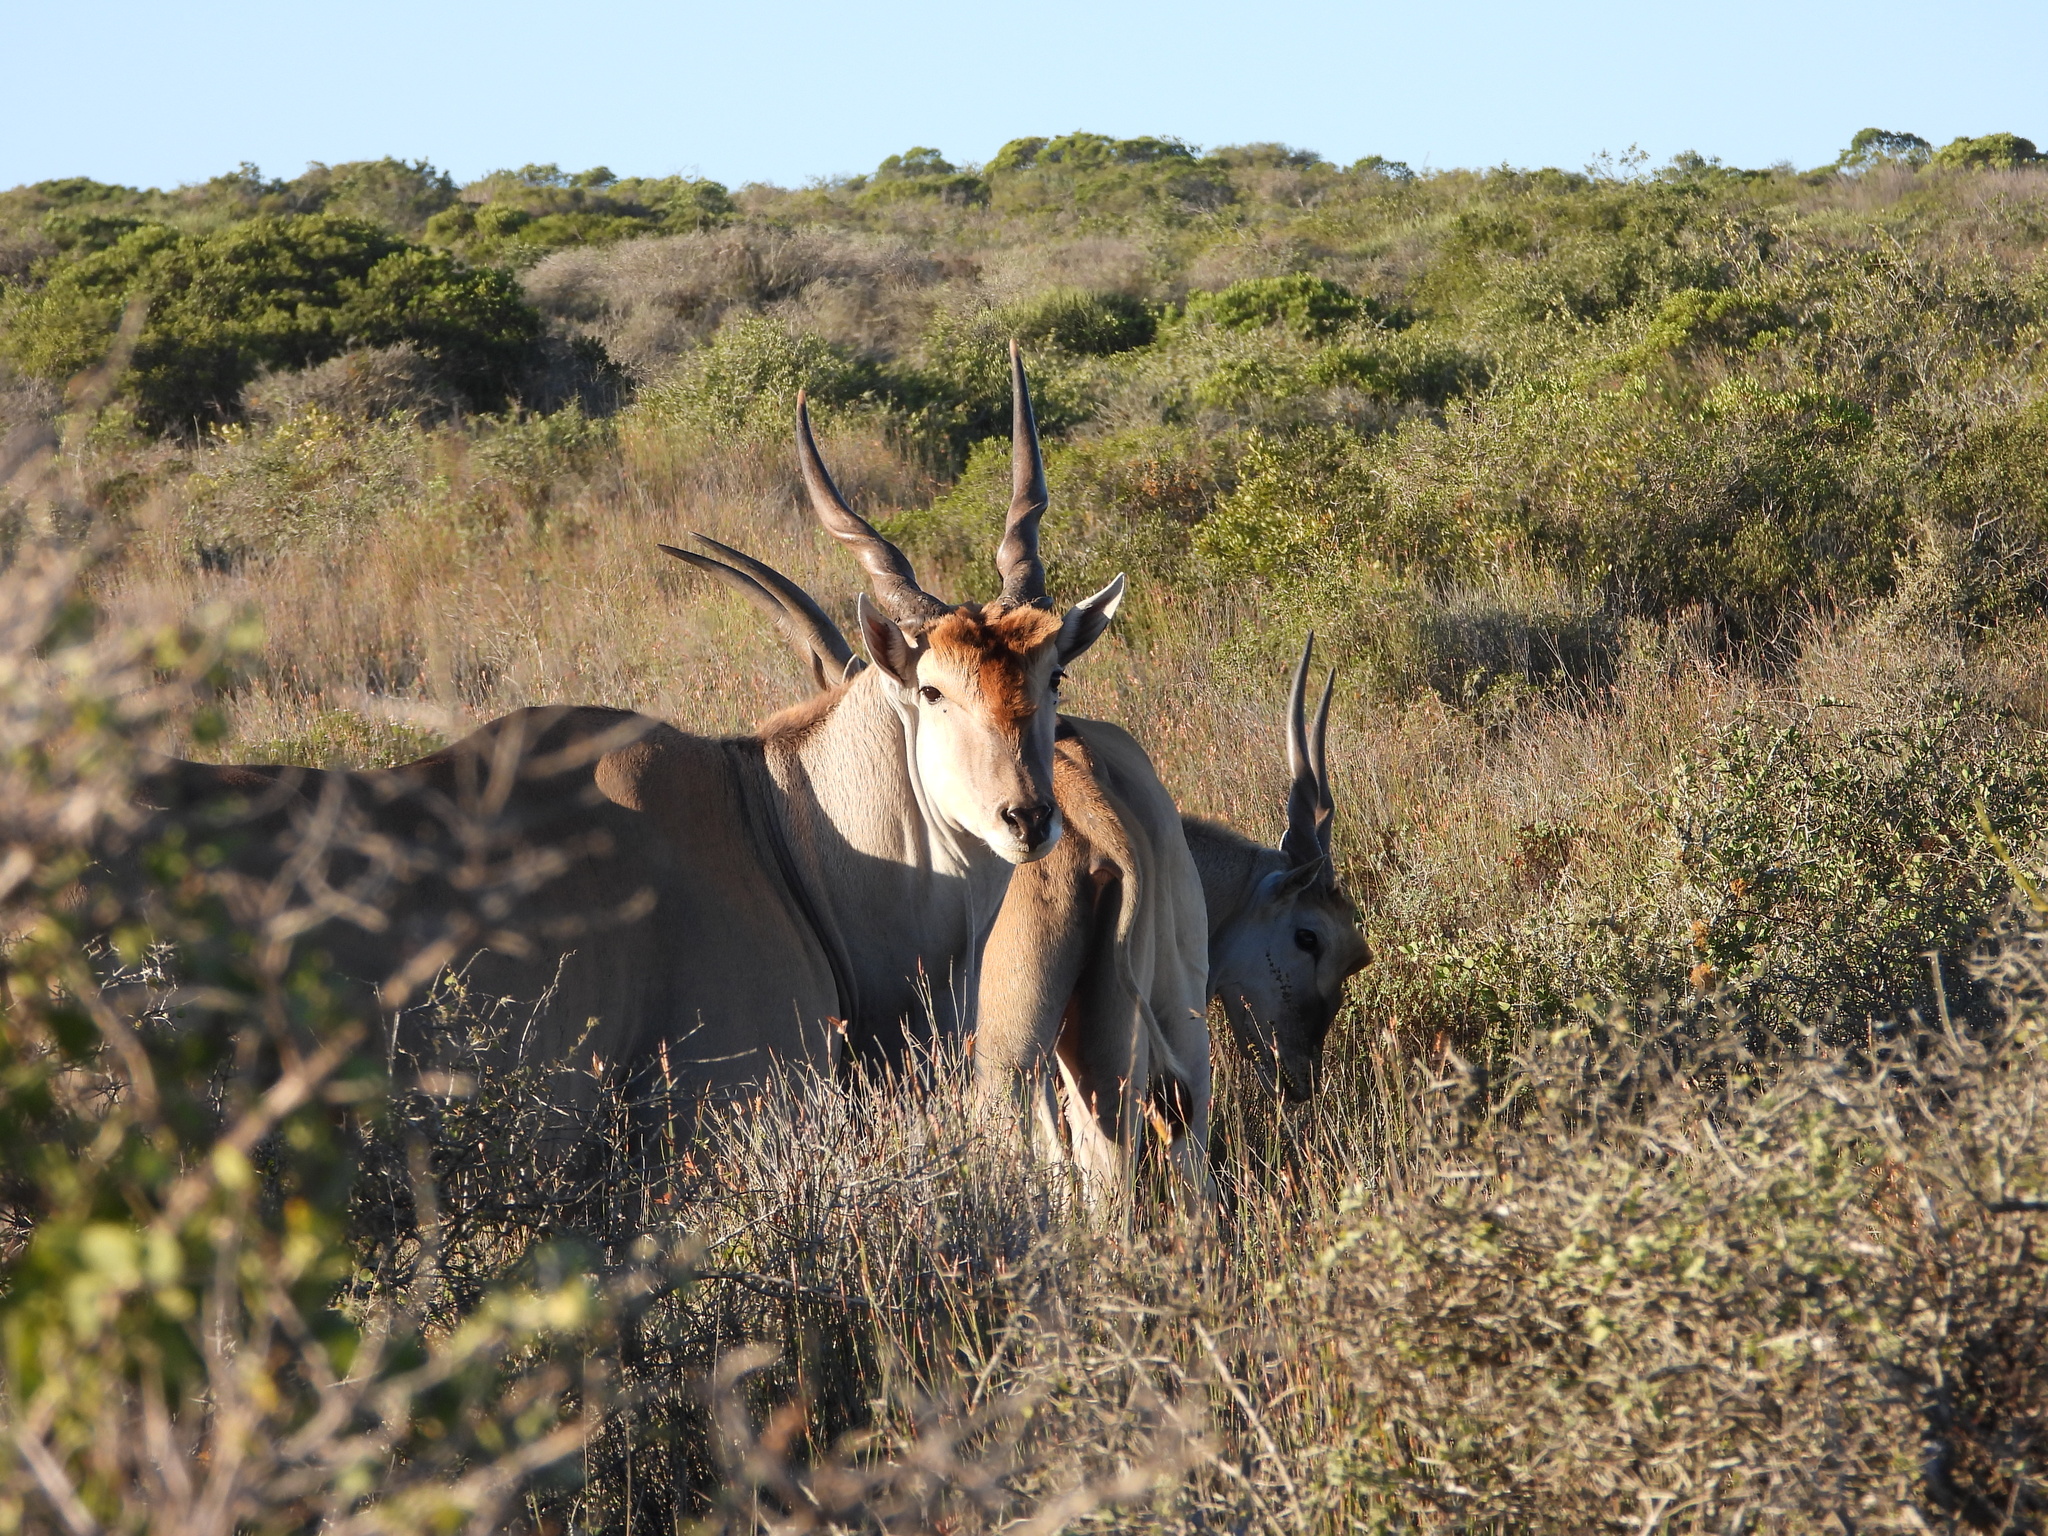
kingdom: Animalia
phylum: Chordata
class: Mammalia
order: Artiodactyla
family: Bovidae
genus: Taurotragus
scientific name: Taurotragus oryx
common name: Common eland
